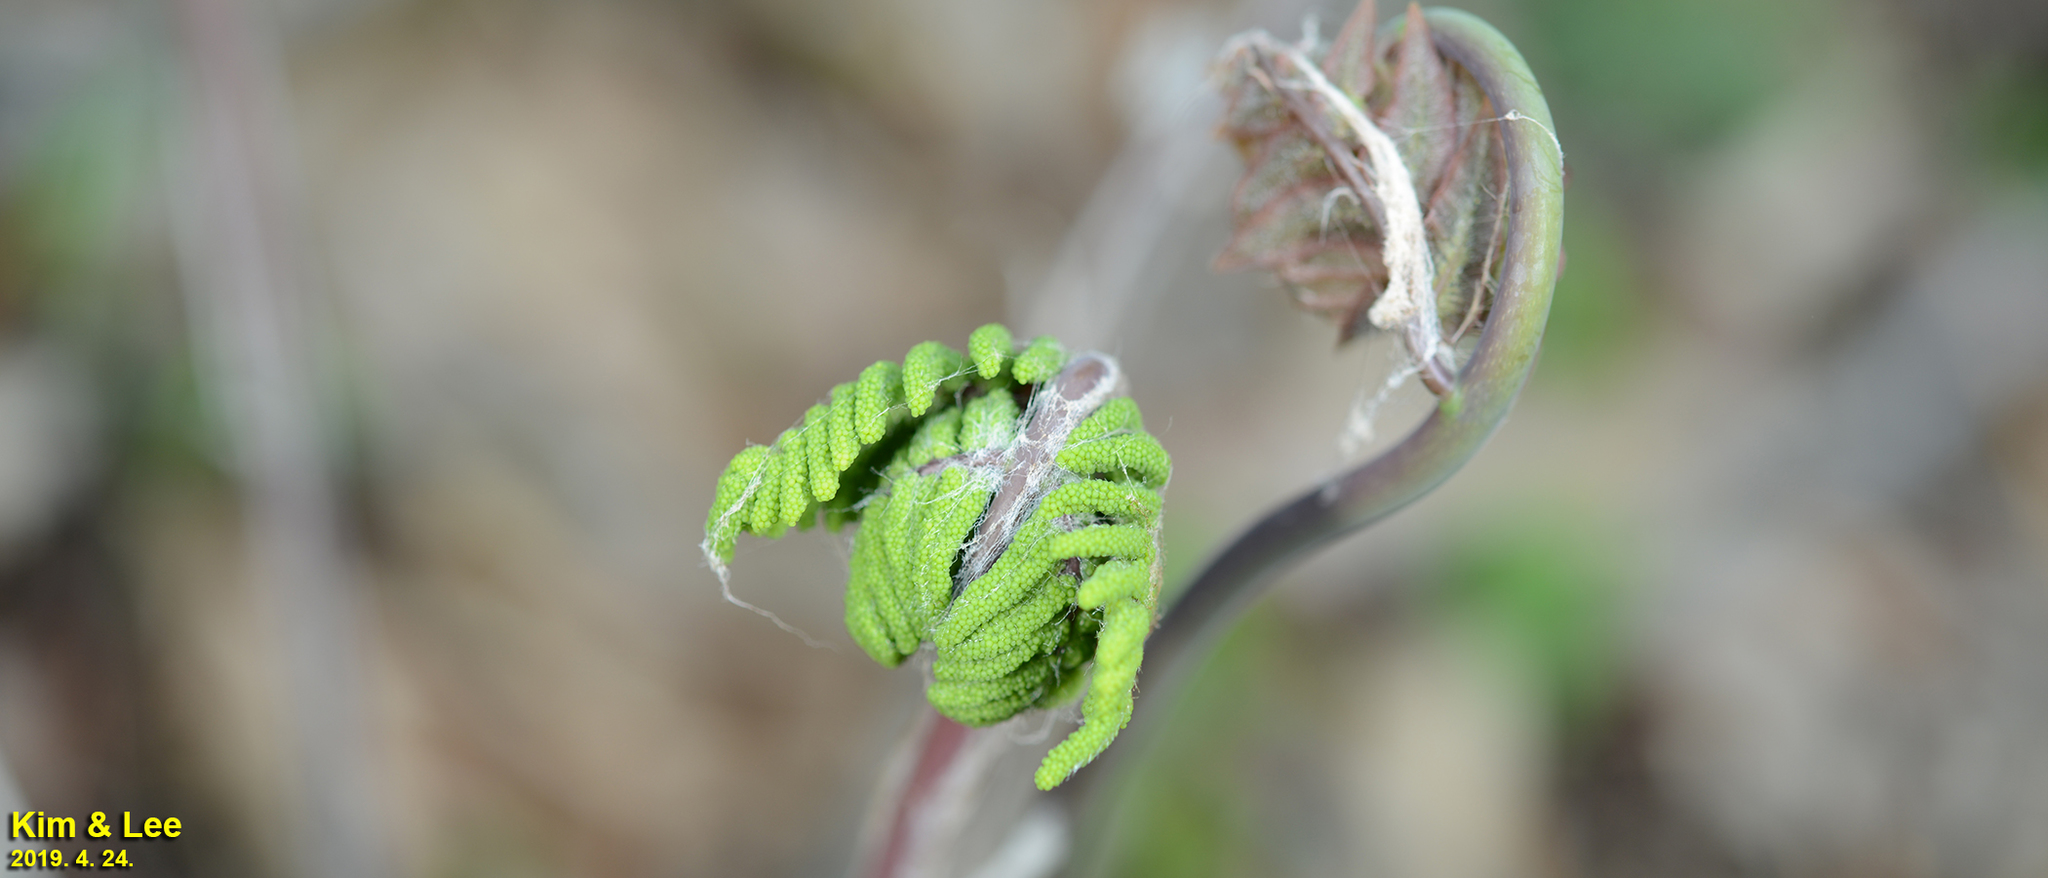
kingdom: Plantae
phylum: Tracheophyta
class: Polypodiopsida
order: Osmundales
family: Osmundaceae
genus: Osmunda
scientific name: Osmunda japonica
